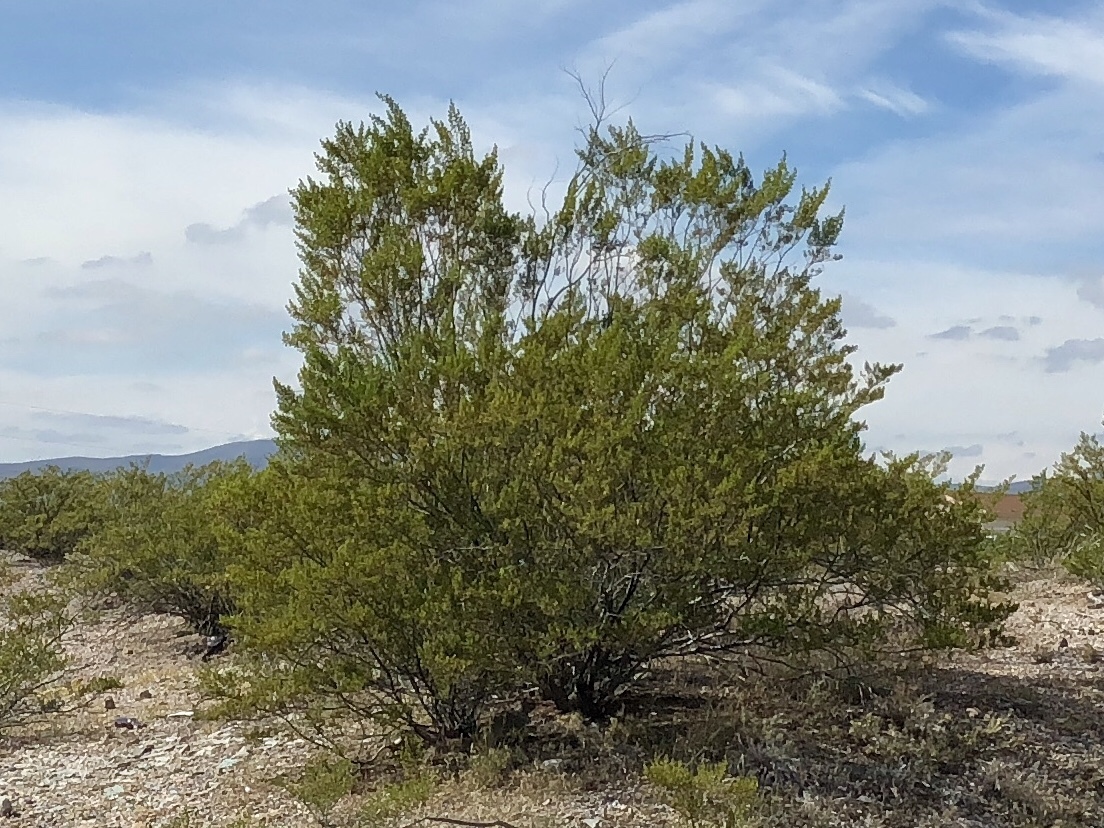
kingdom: Plantae
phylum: Tracheophyta
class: Magnoliopsida
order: Zygophyllales
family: Zygophyllaceae
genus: Larrea
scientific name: Larrea tridentata
